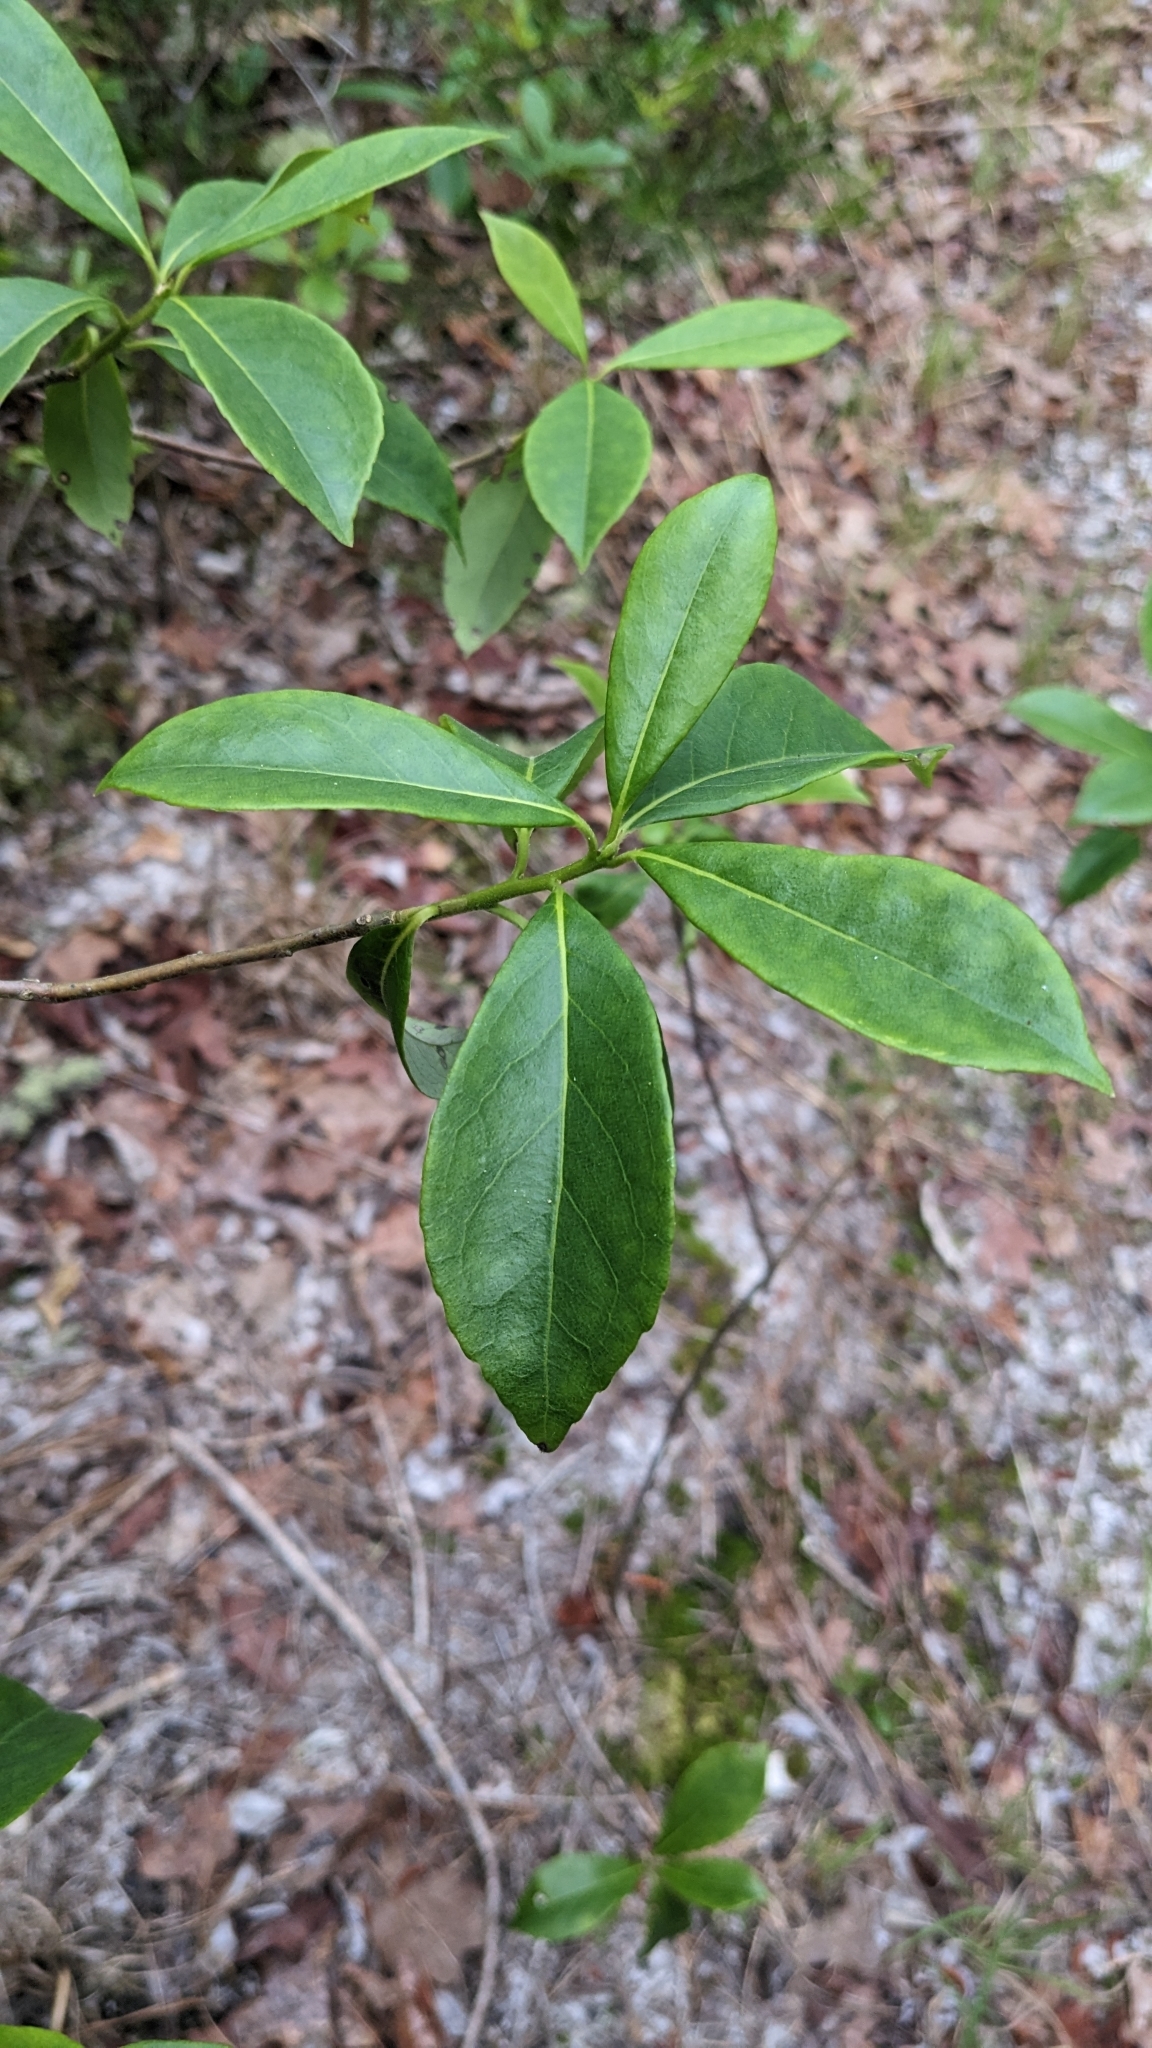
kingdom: Plantae
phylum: Tracheophyta
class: Magnoliopsida
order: Ericales
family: Symplocaceae
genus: Symplocos
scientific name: Symplocos tinctoria
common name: Horse-sugar
